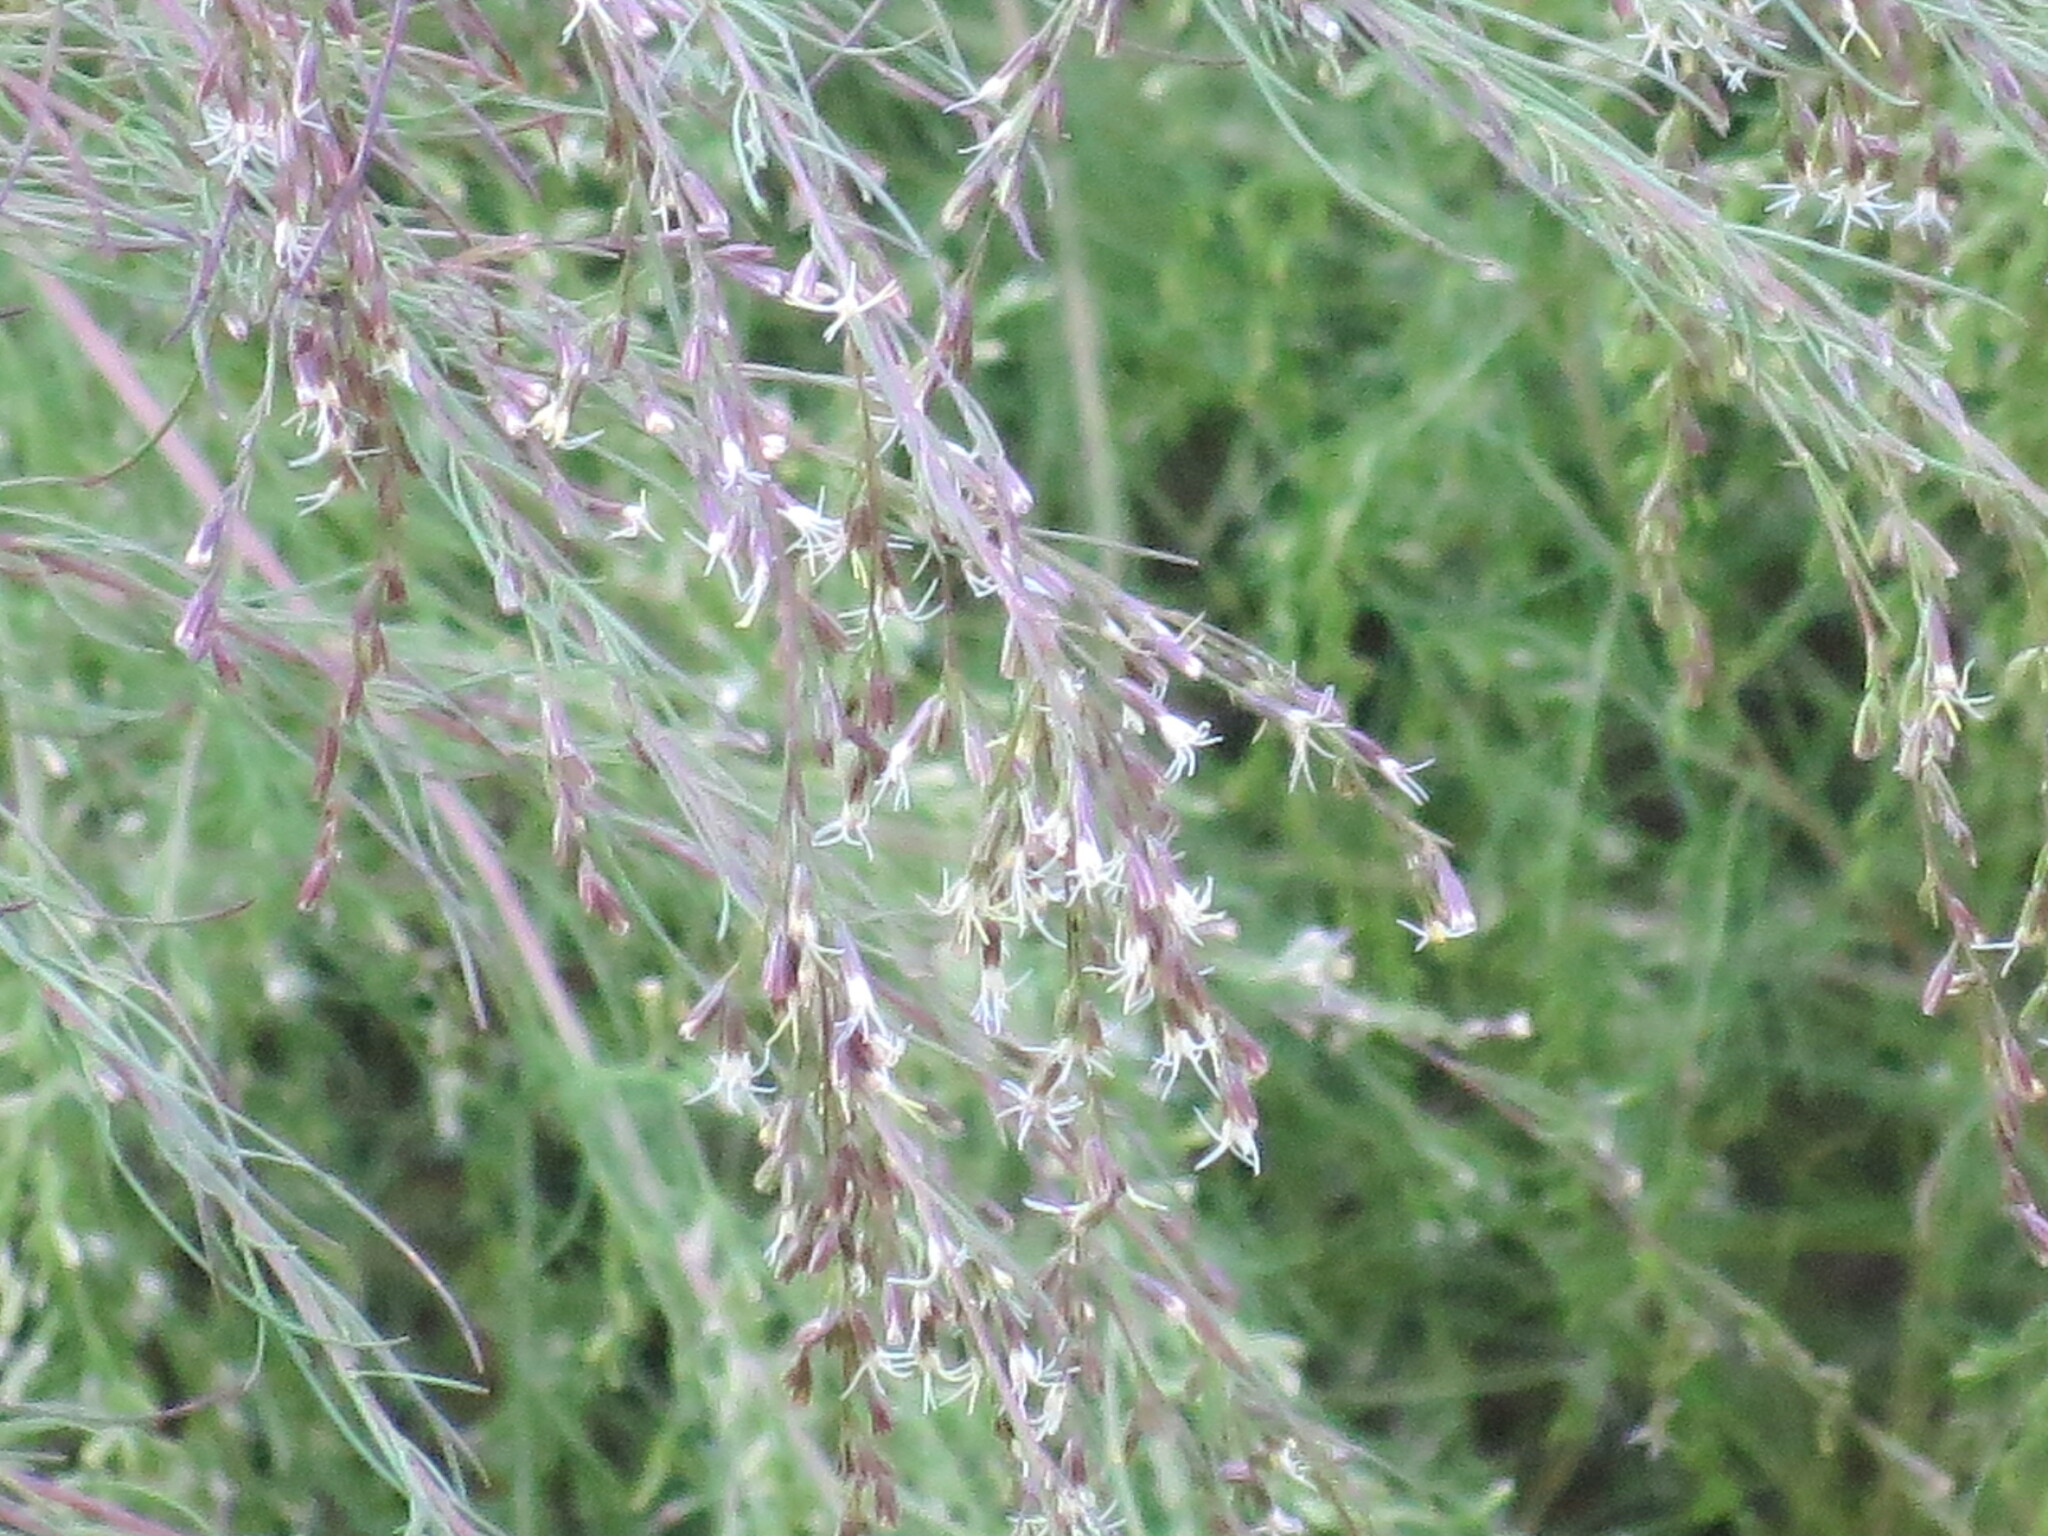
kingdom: Plantae
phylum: Tracheophyta
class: Magnoliopsida
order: Asterales
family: Asteraceae
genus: Eupatorium
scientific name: Eupatorium capillifolium
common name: Dog-fennel
